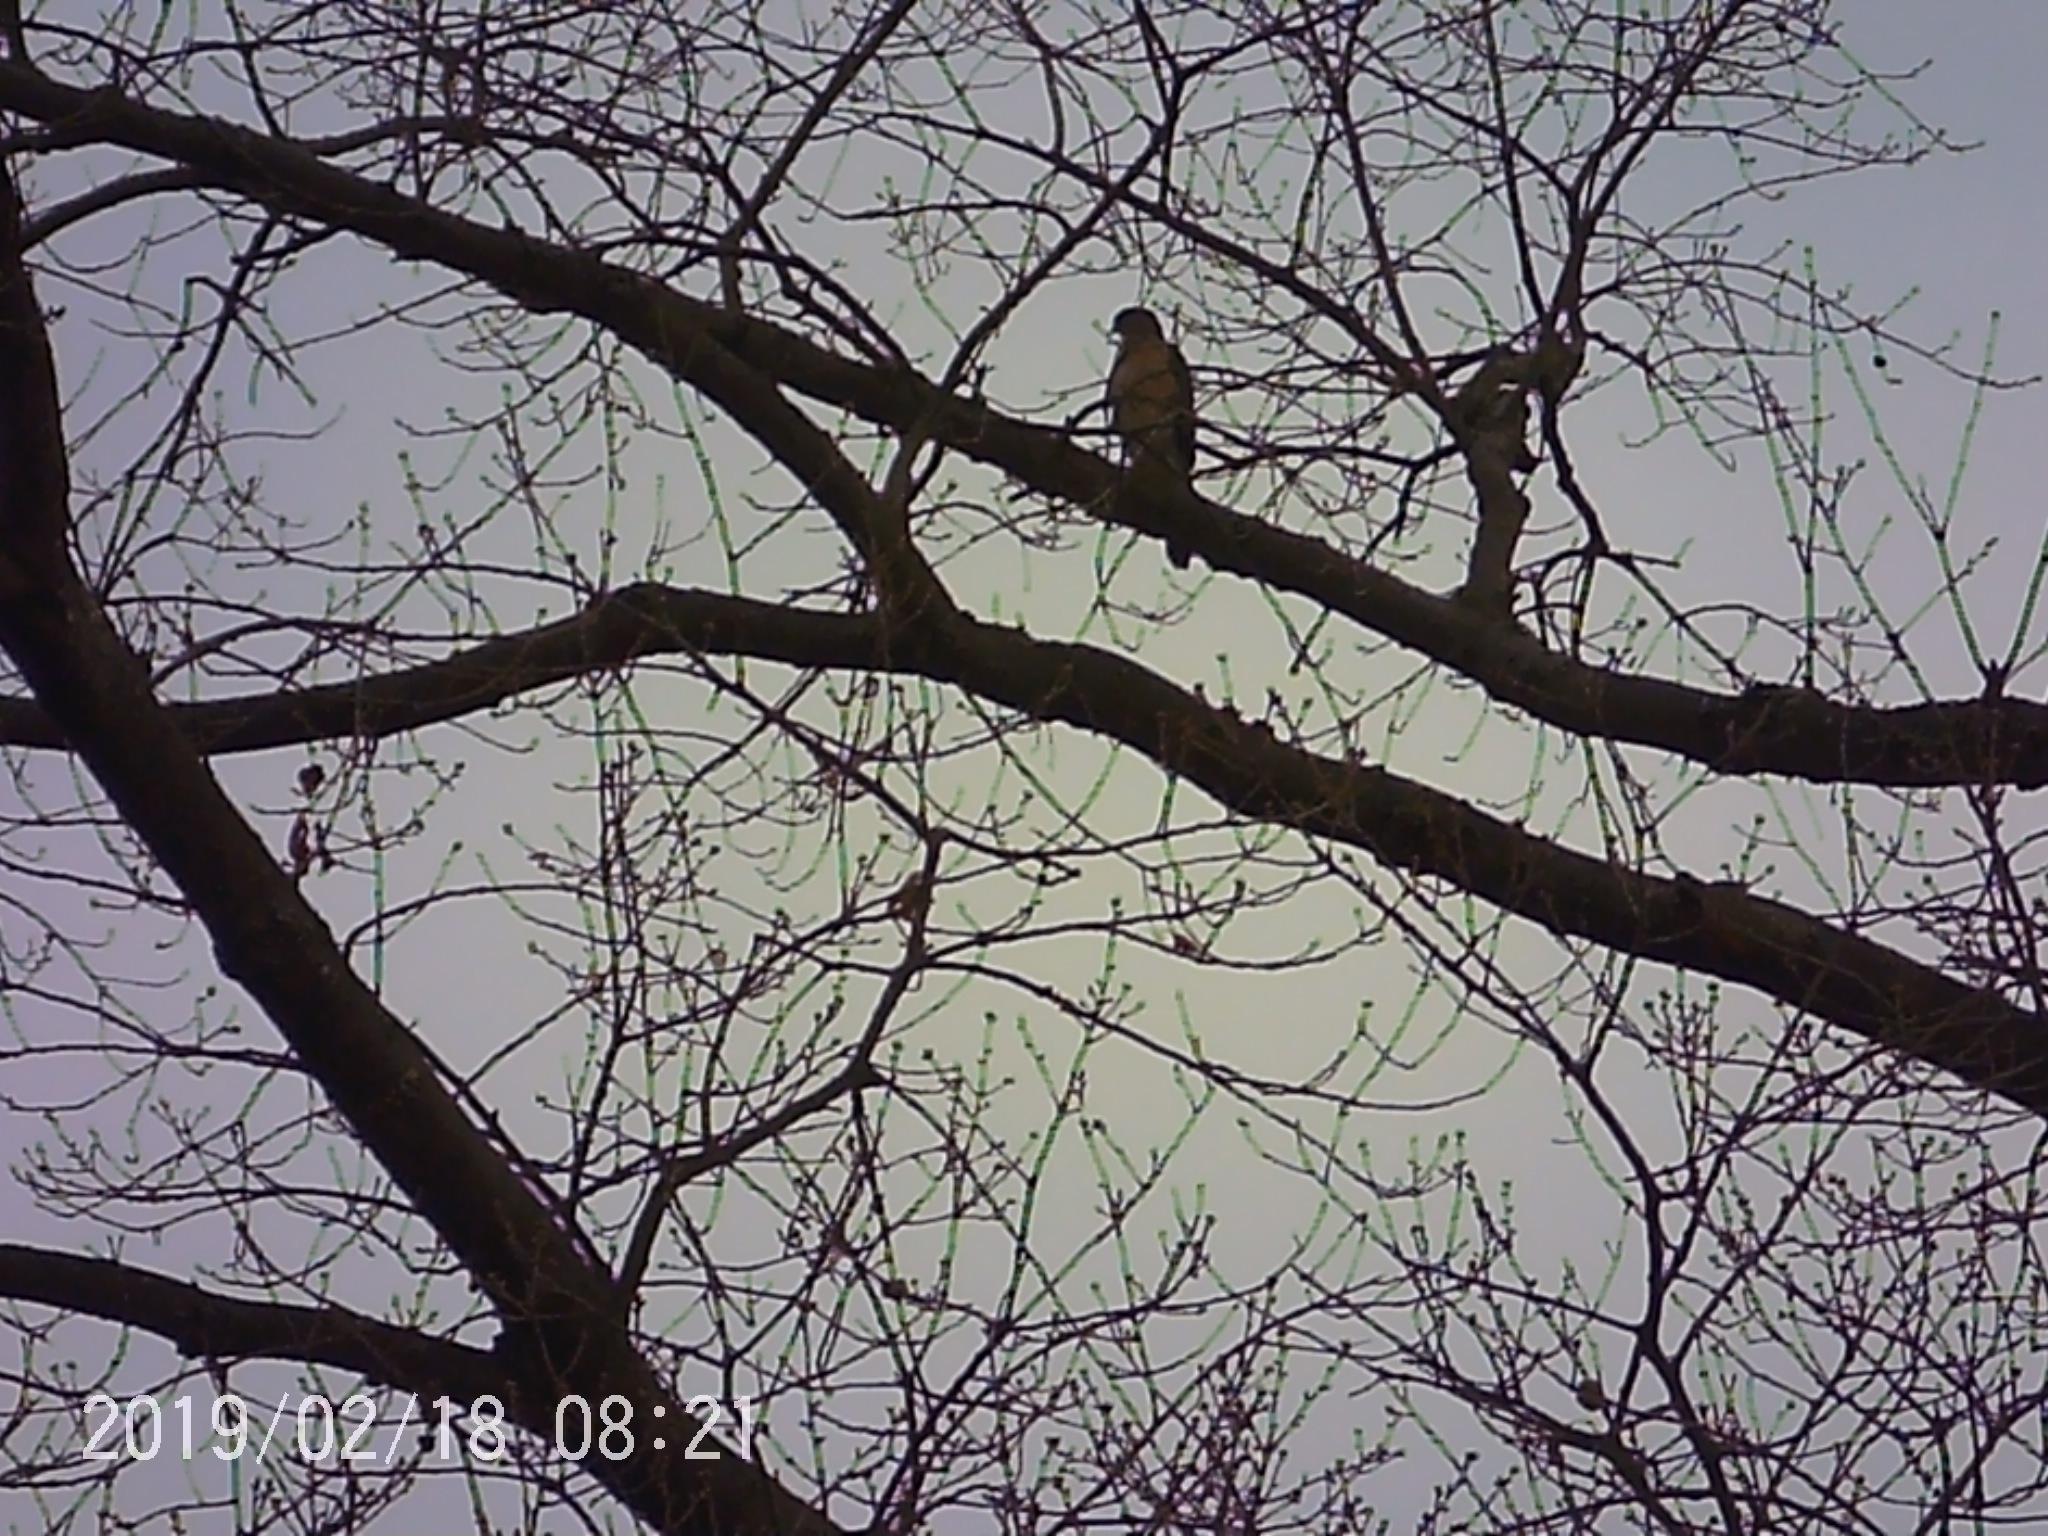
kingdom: Animalia
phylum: Chordata
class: Aves
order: Accipitriformes
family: Accipitridae
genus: Accipiter
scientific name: Accipiter cooperii
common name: Cooper's hawk
